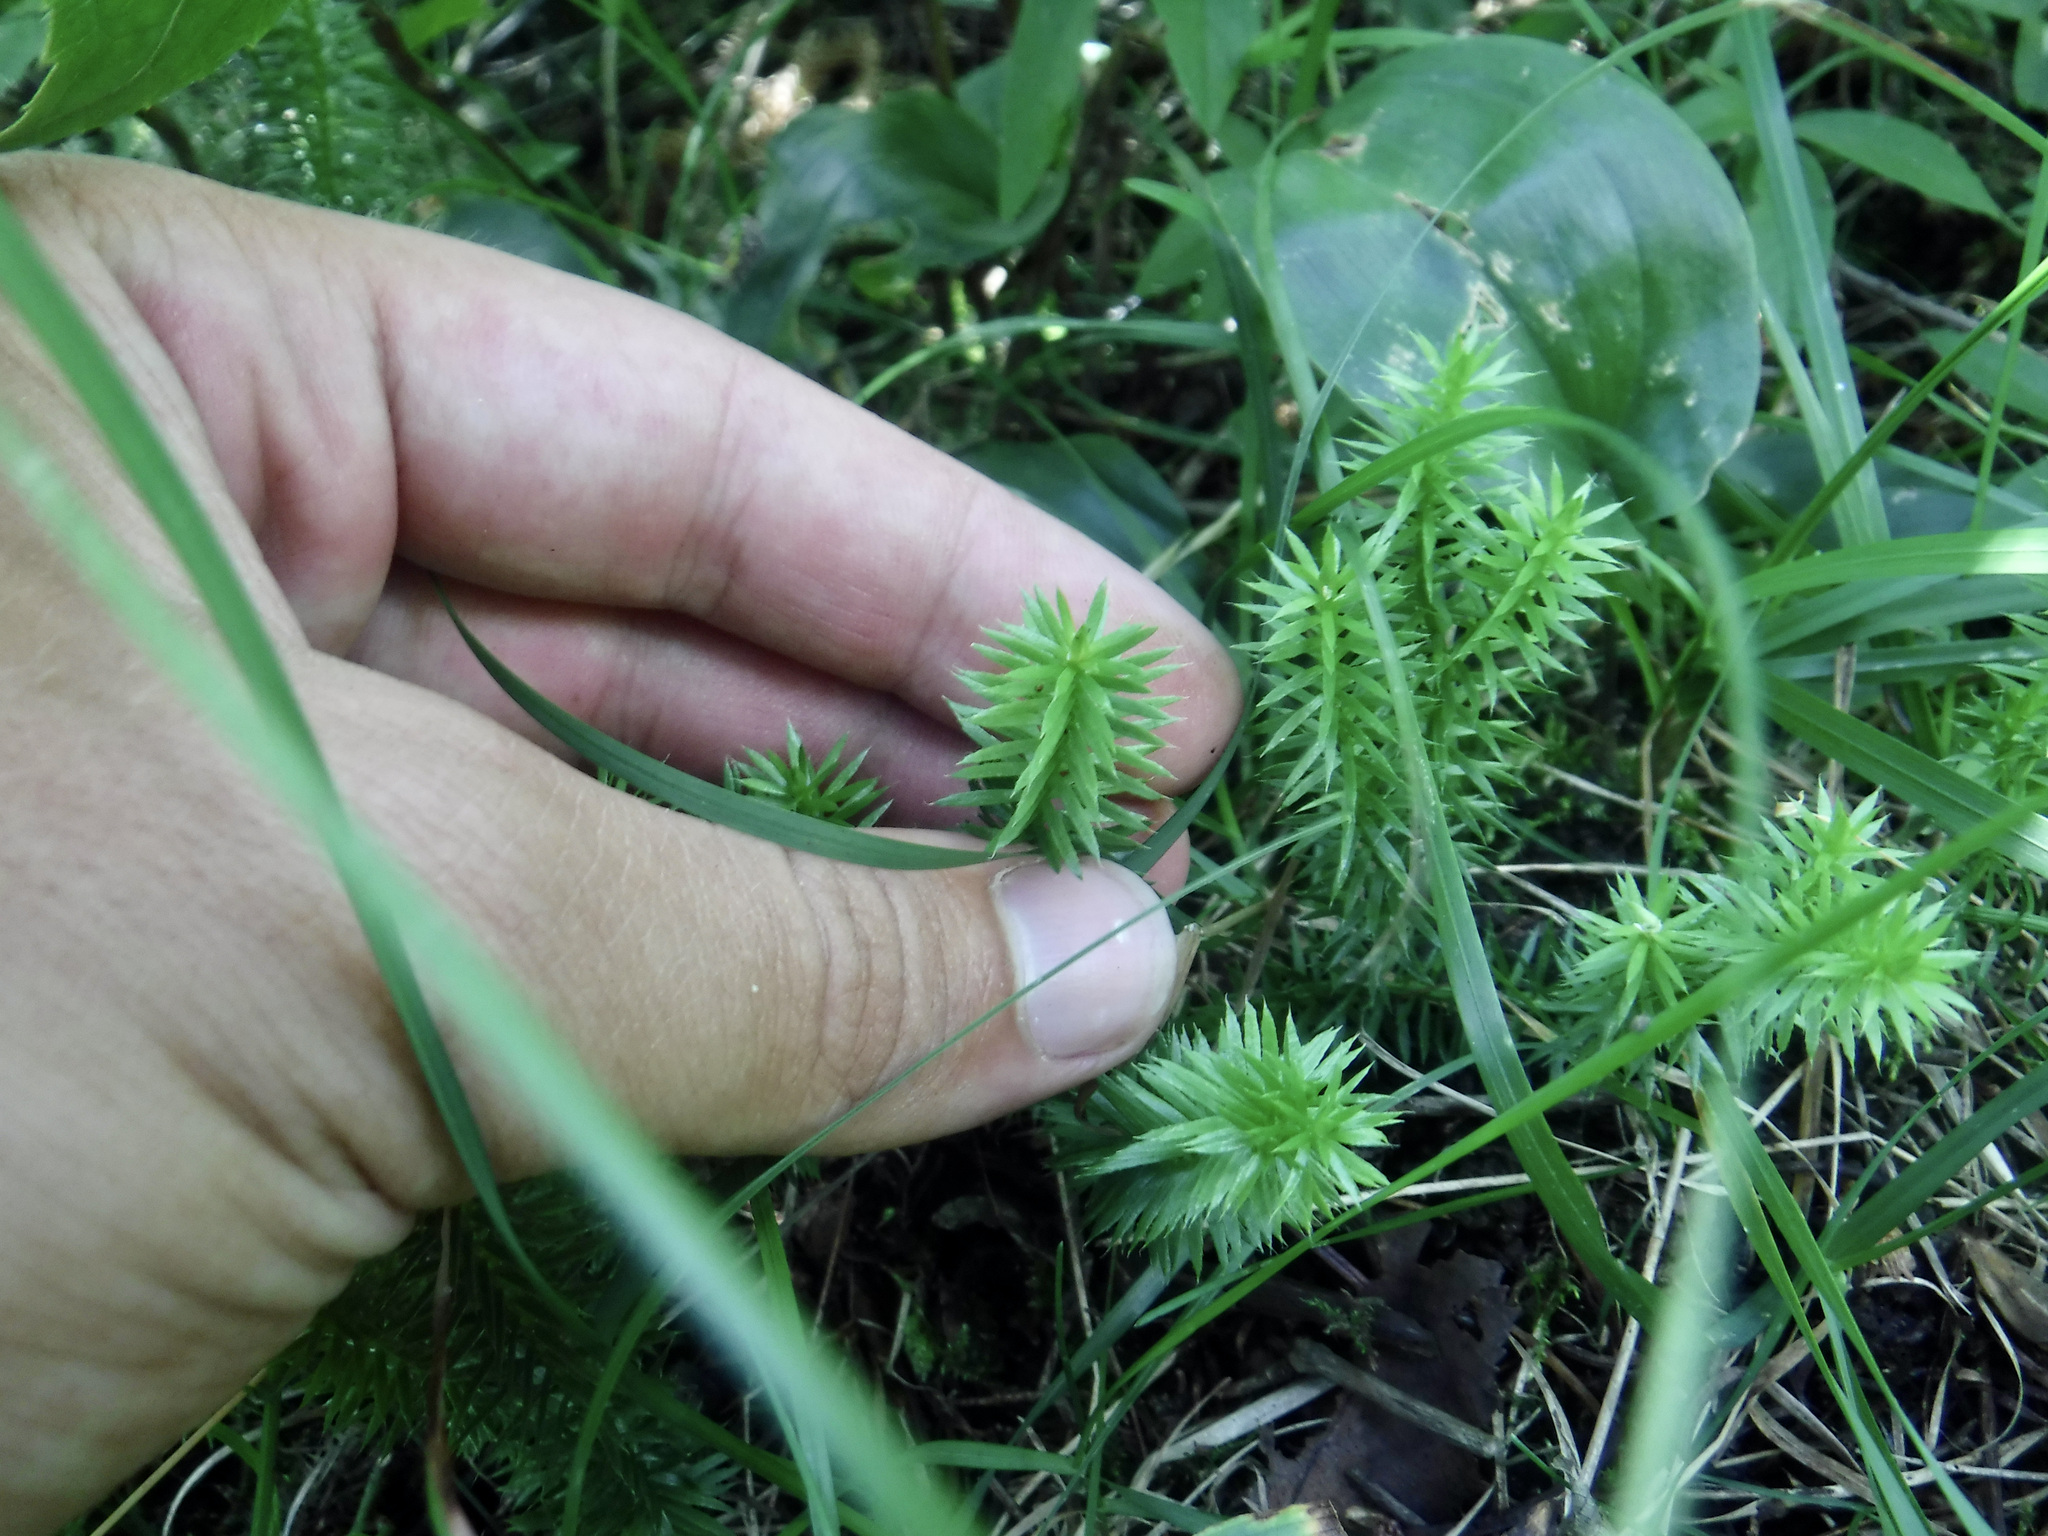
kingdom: Plantae
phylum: Tracheophyta
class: Lycopodiopsida
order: Lycopodiales
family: Lycopodiaceae
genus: Spinulum
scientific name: Spinulum annotinum
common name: Interrupted club-moss
